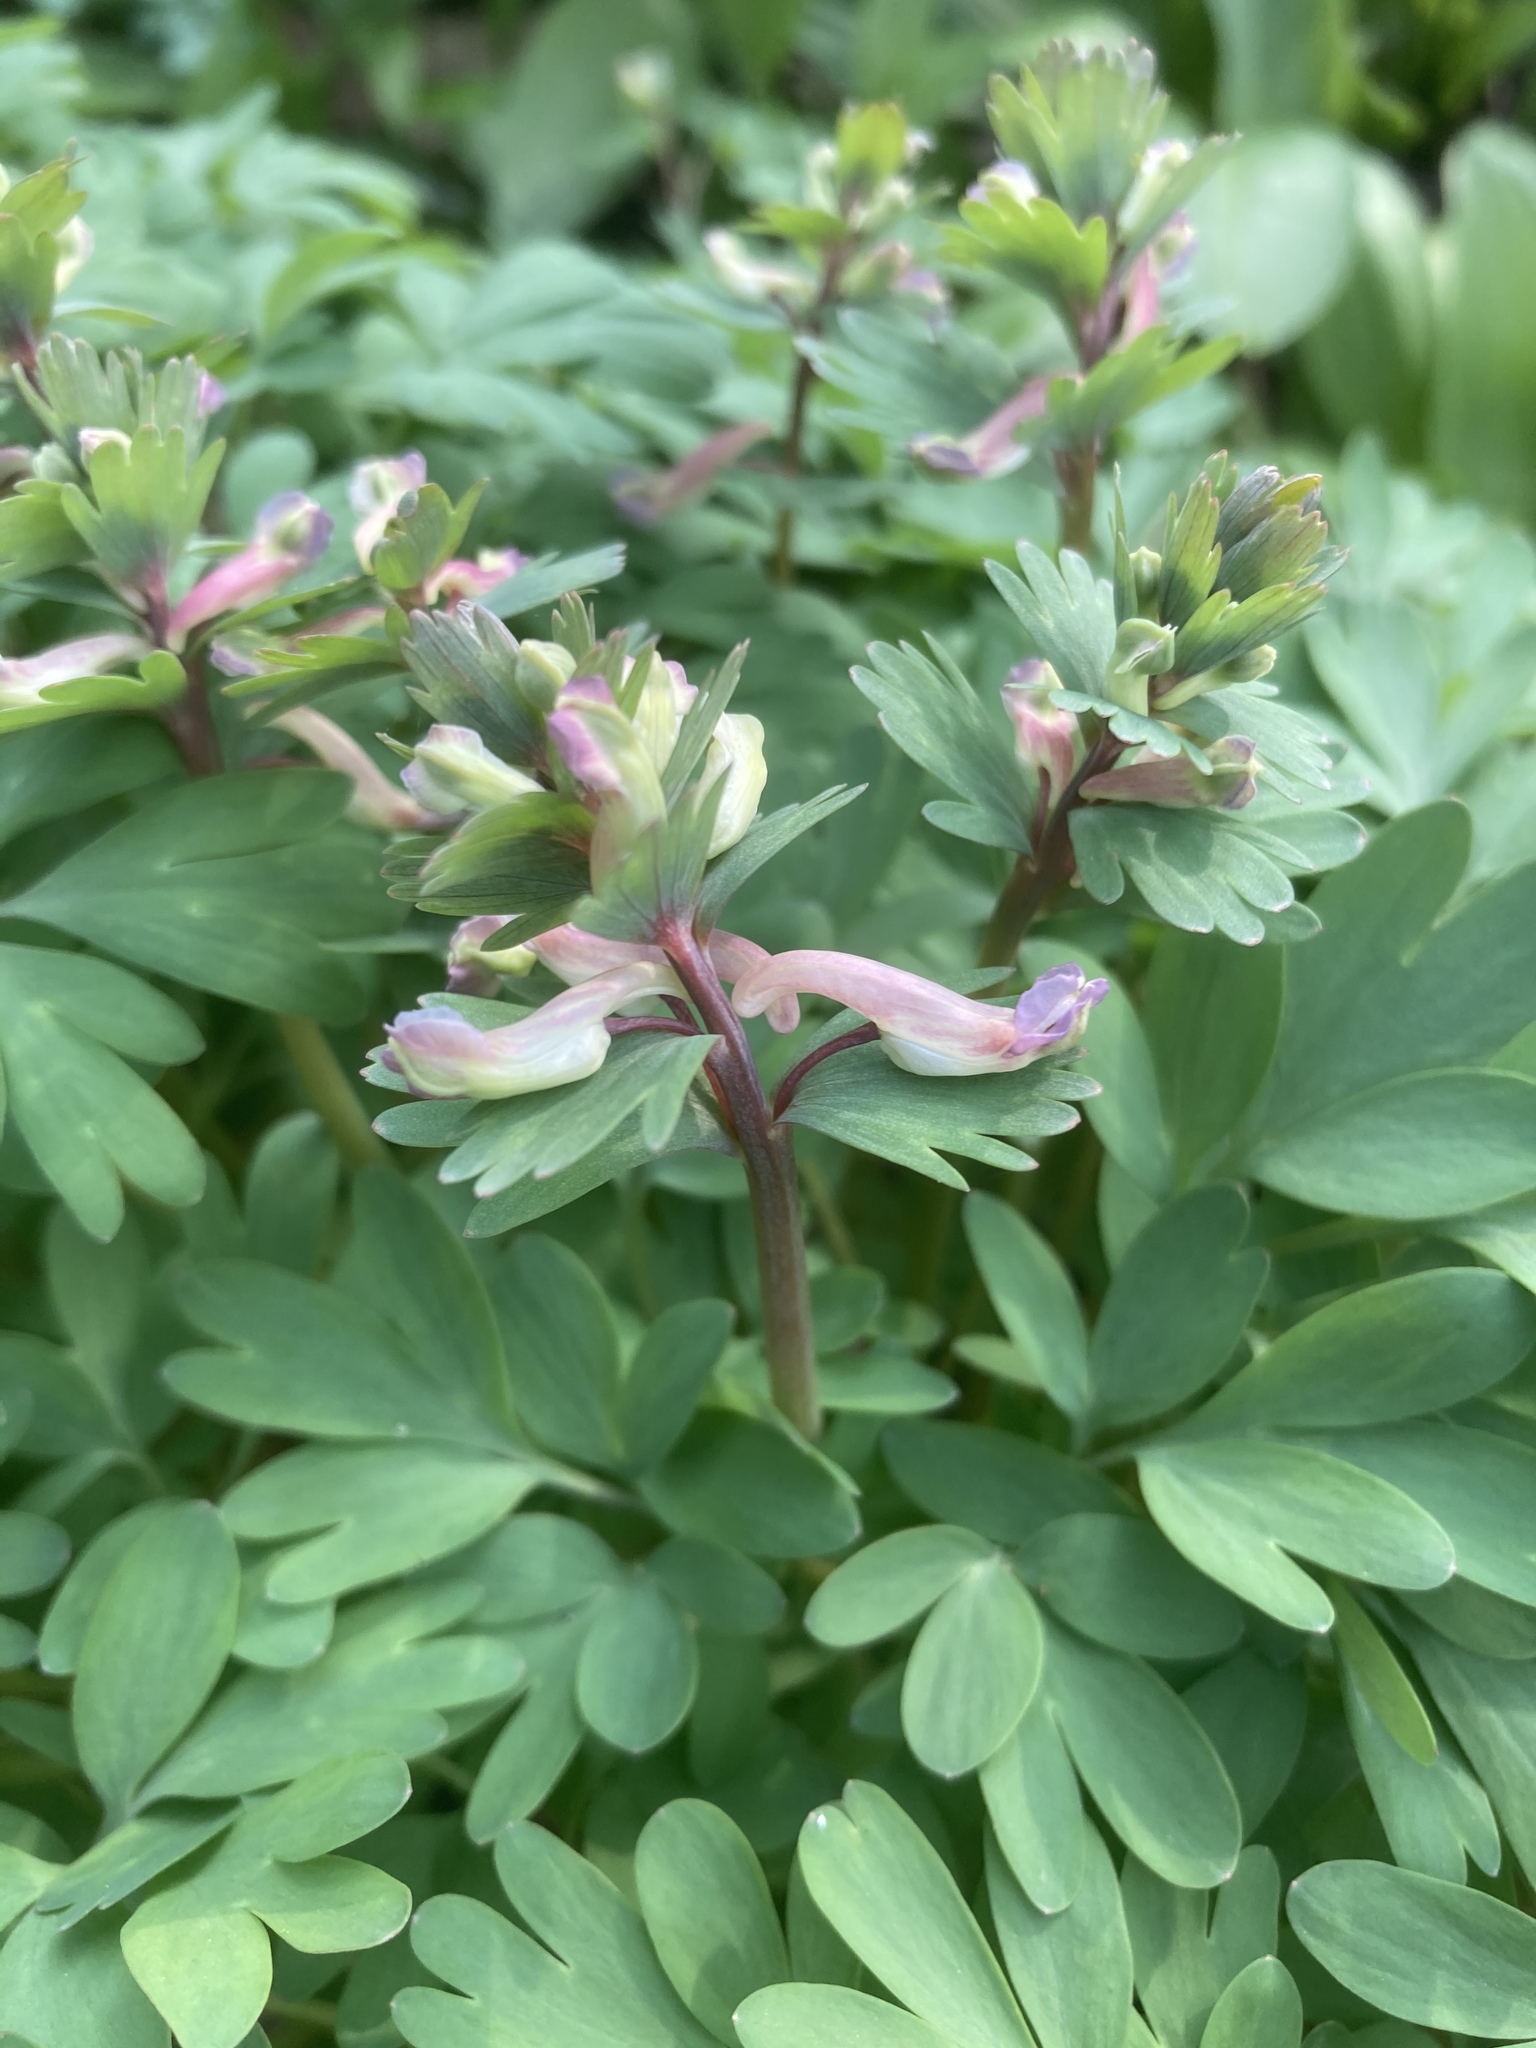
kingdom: Plantae
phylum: Tracheophyta
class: Magnoliopsida
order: Ranunculales
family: Papaveraceae
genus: Corydalis
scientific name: Corydalis solida
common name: Bird-in-a-bush
